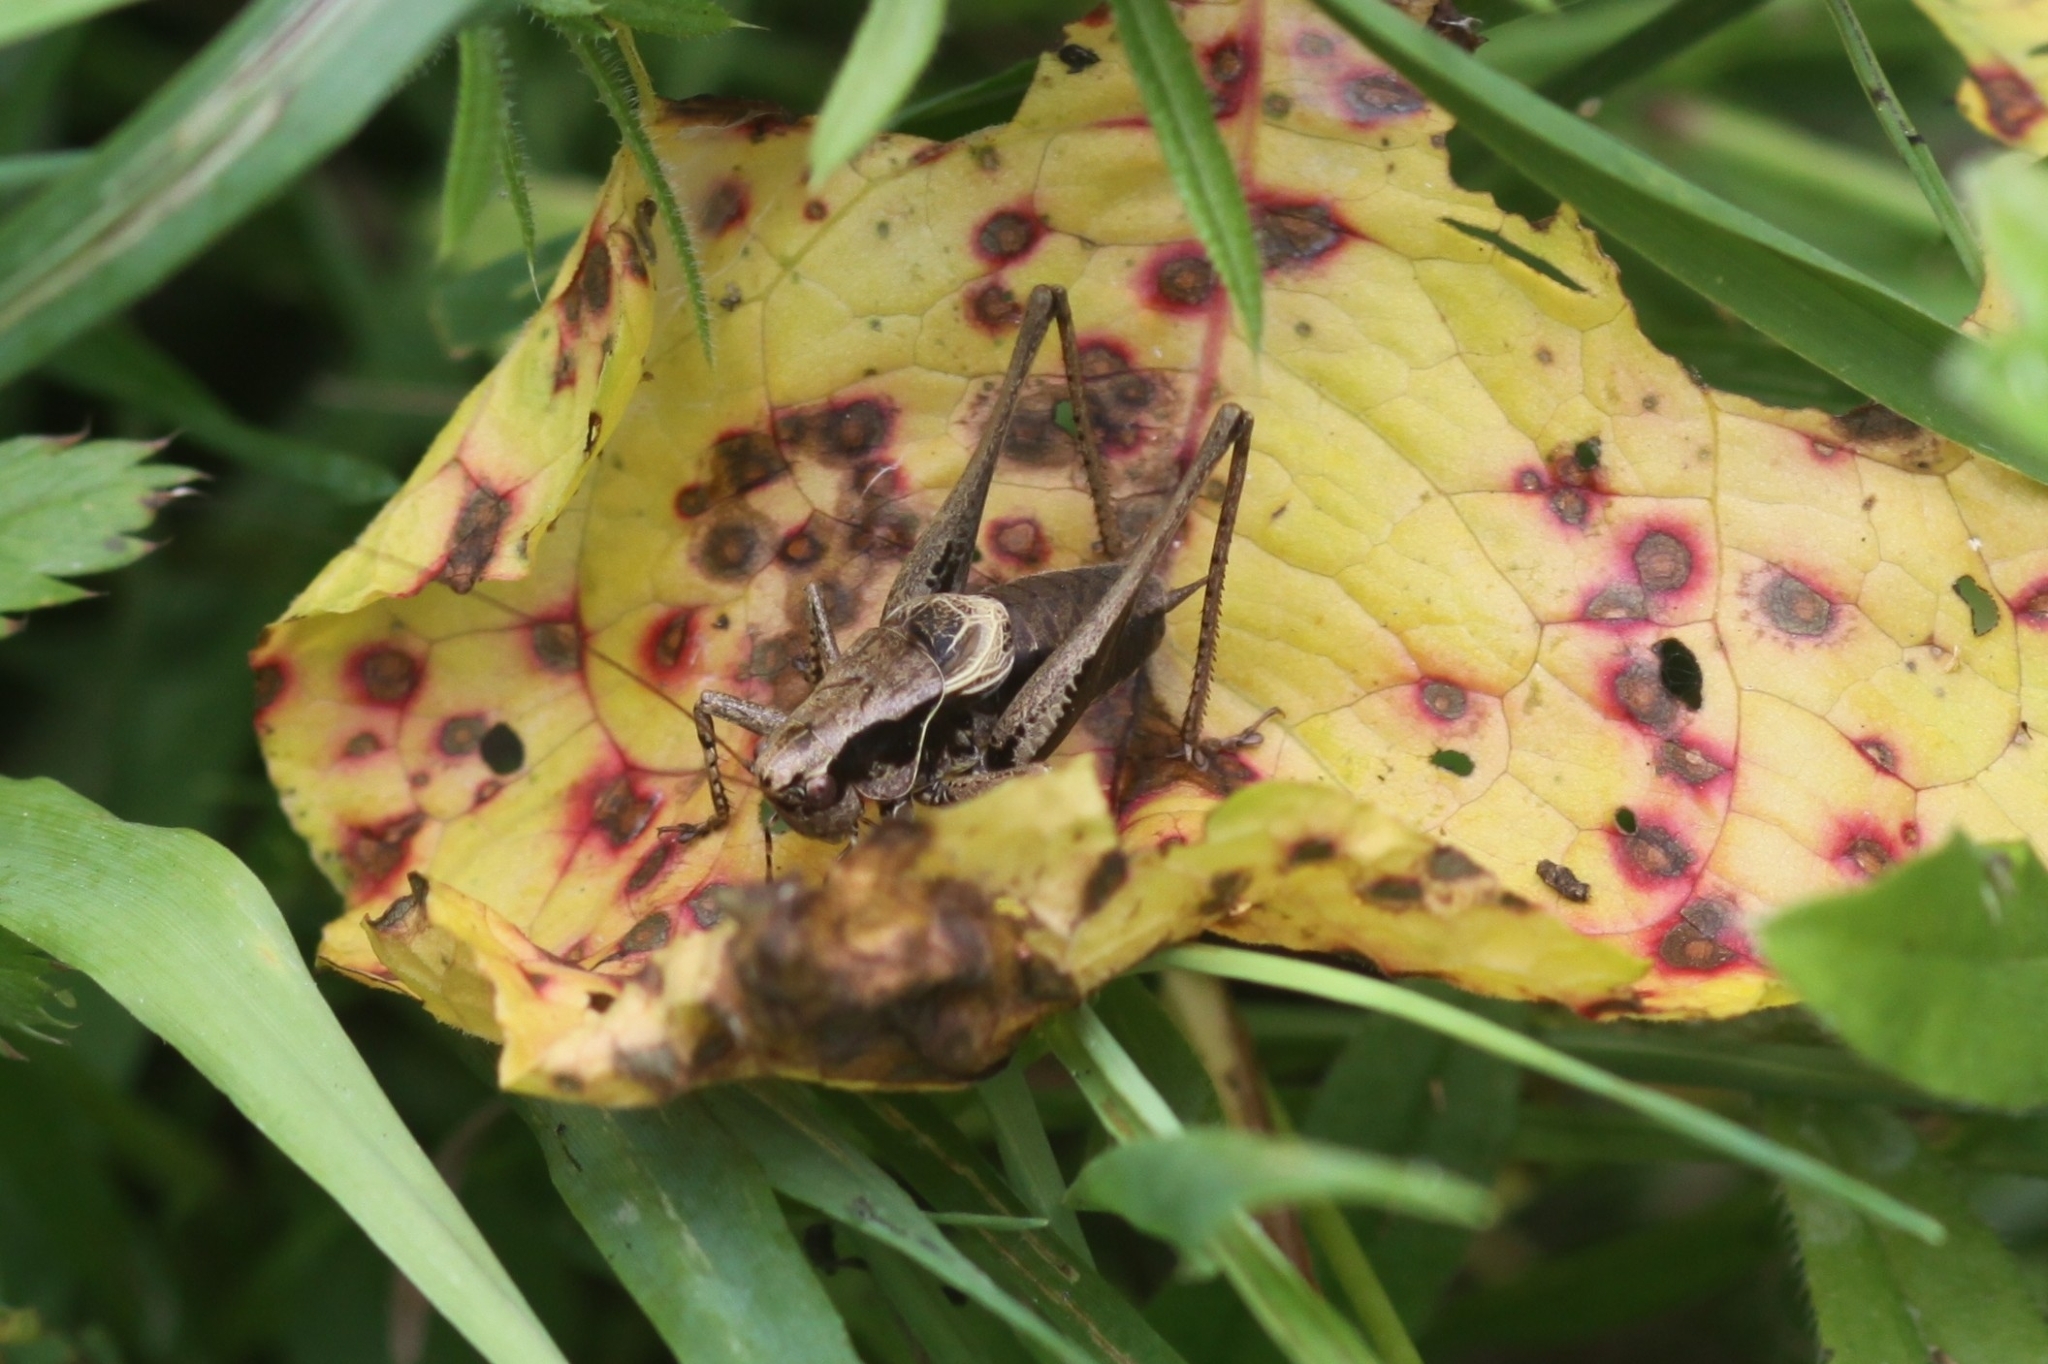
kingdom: Animalia
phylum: Arthropoda
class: Insecta
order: Orthoptera
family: Tettigoniidae
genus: Pholidoptera
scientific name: Pholidoptera griseoaptera
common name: Dark bush-cricket
